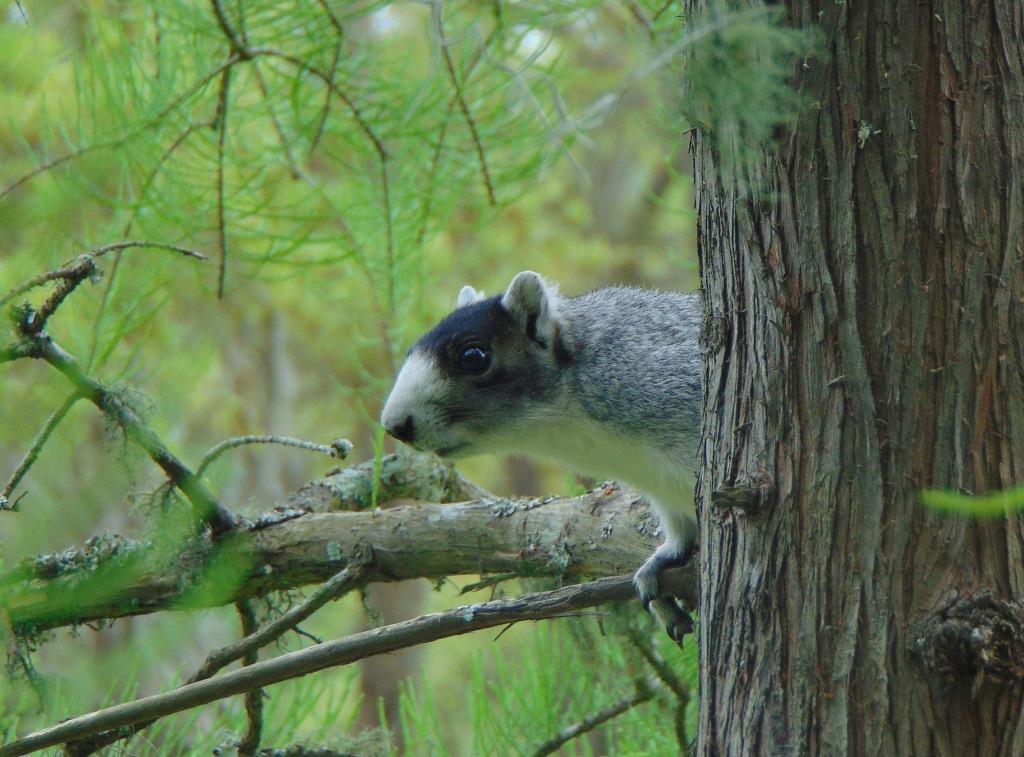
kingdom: Animalia
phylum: Chordata
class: Mammalia
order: Rodentia
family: Sciuridae
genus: Sciurus
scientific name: Sciurus niger
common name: Fox squirrel
